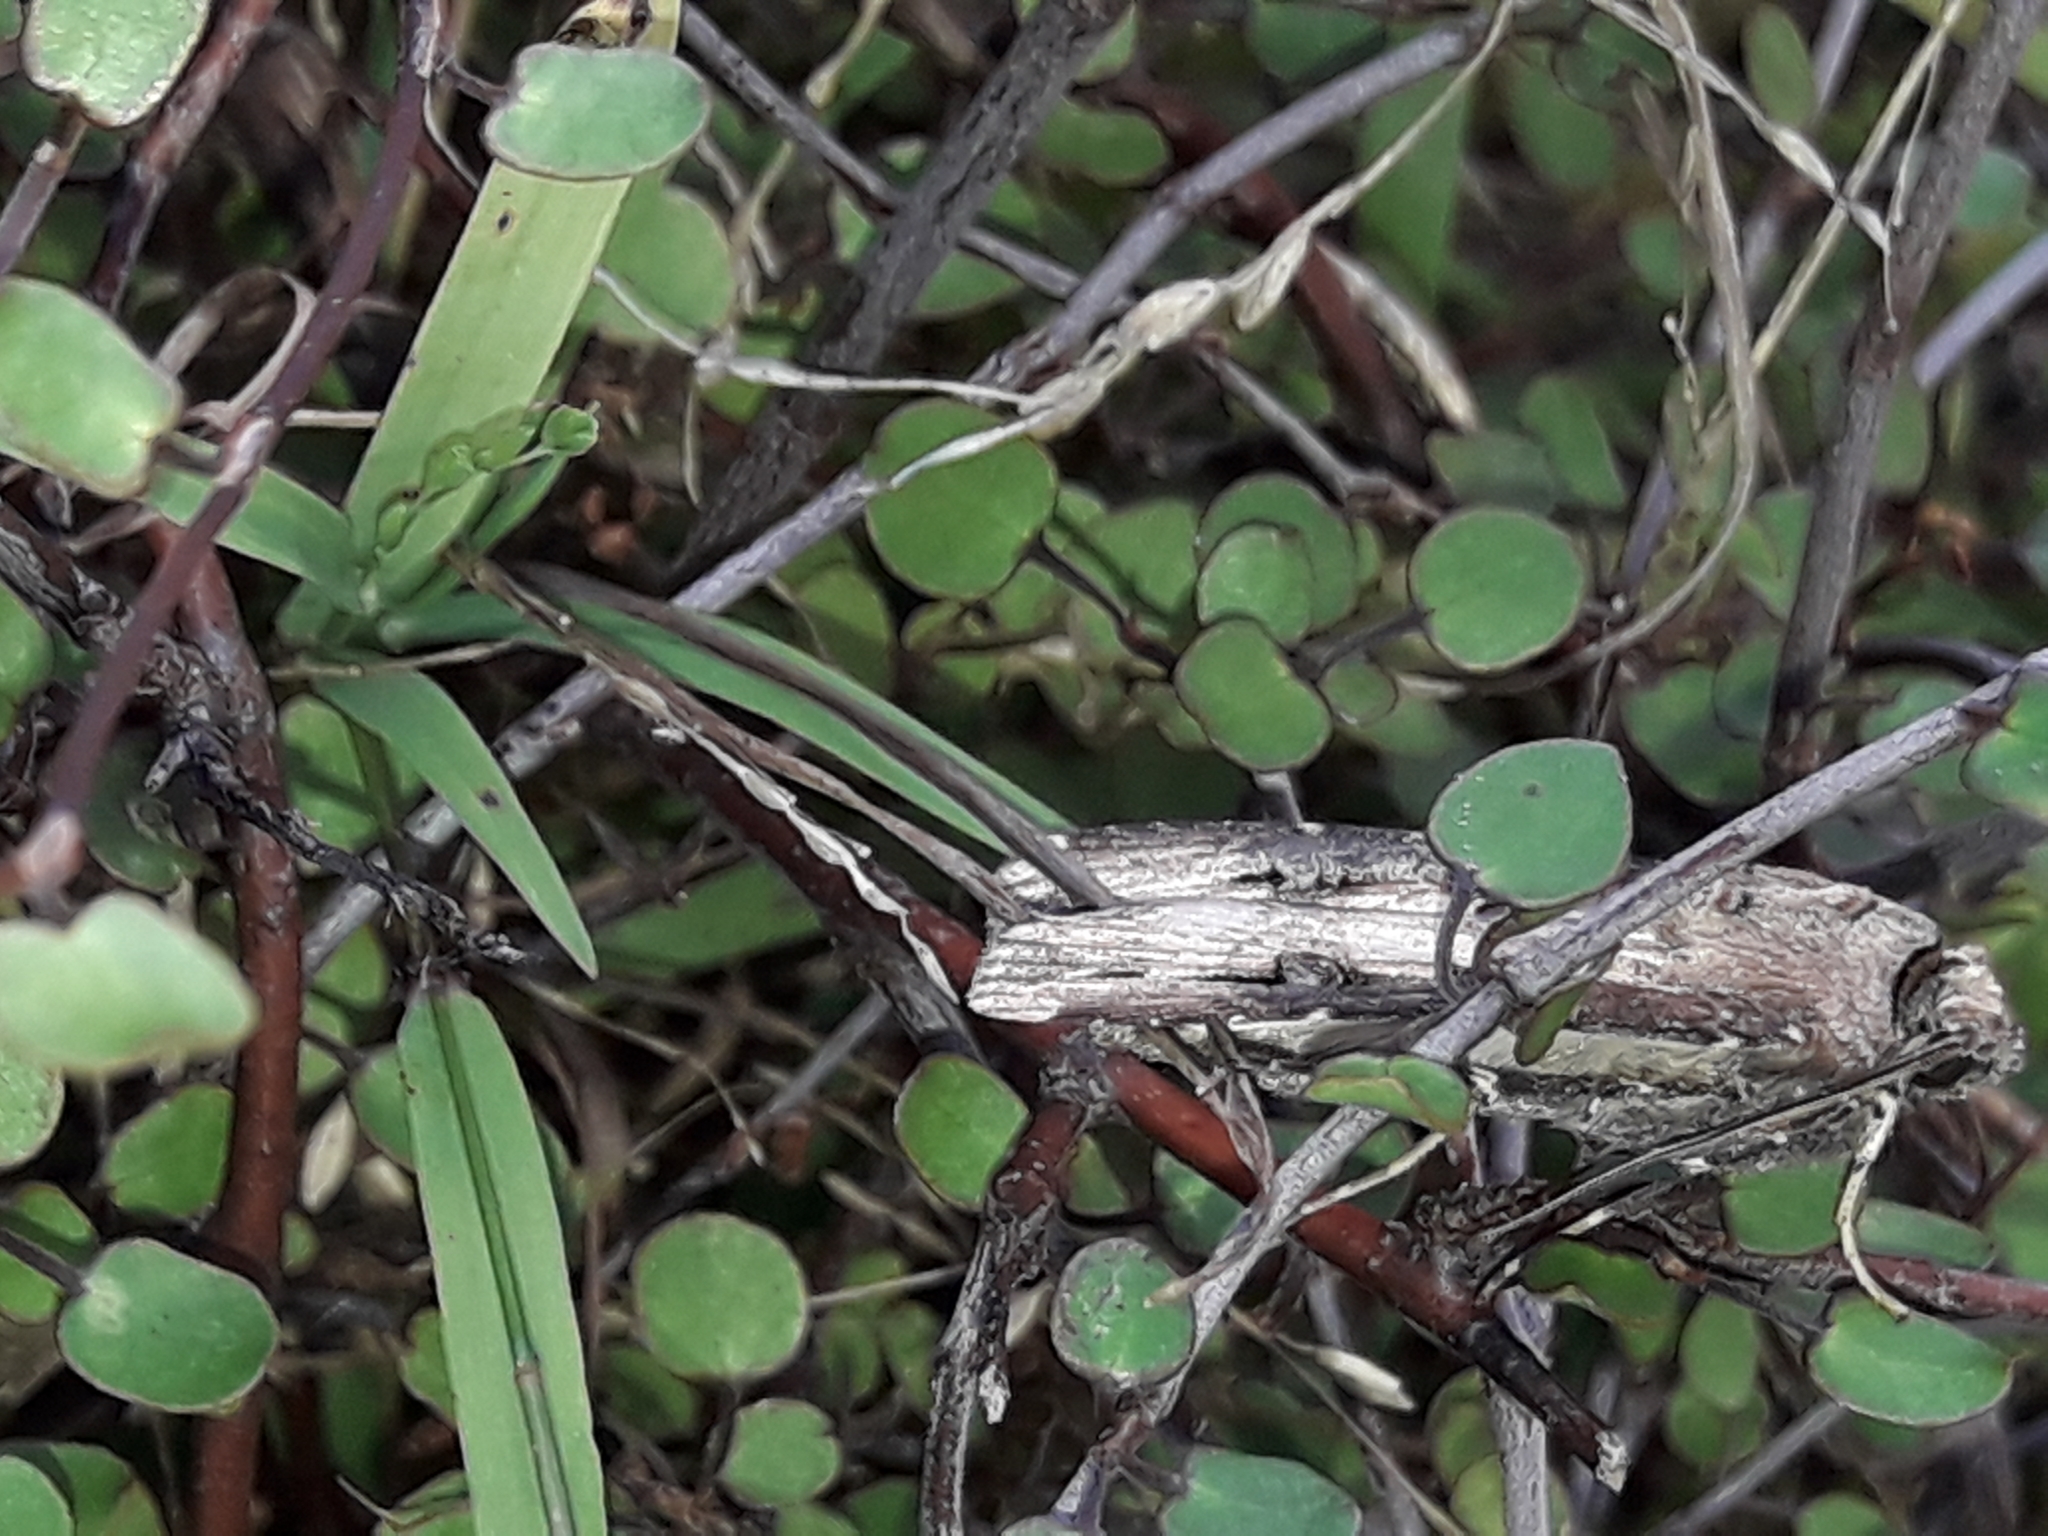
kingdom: Animalia
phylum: Arthropoda
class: Insecta
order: Lepidoptera
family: Noctuidae
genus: Agrotis
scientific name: Agrotis ipsilon
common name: Dark sword-grass
